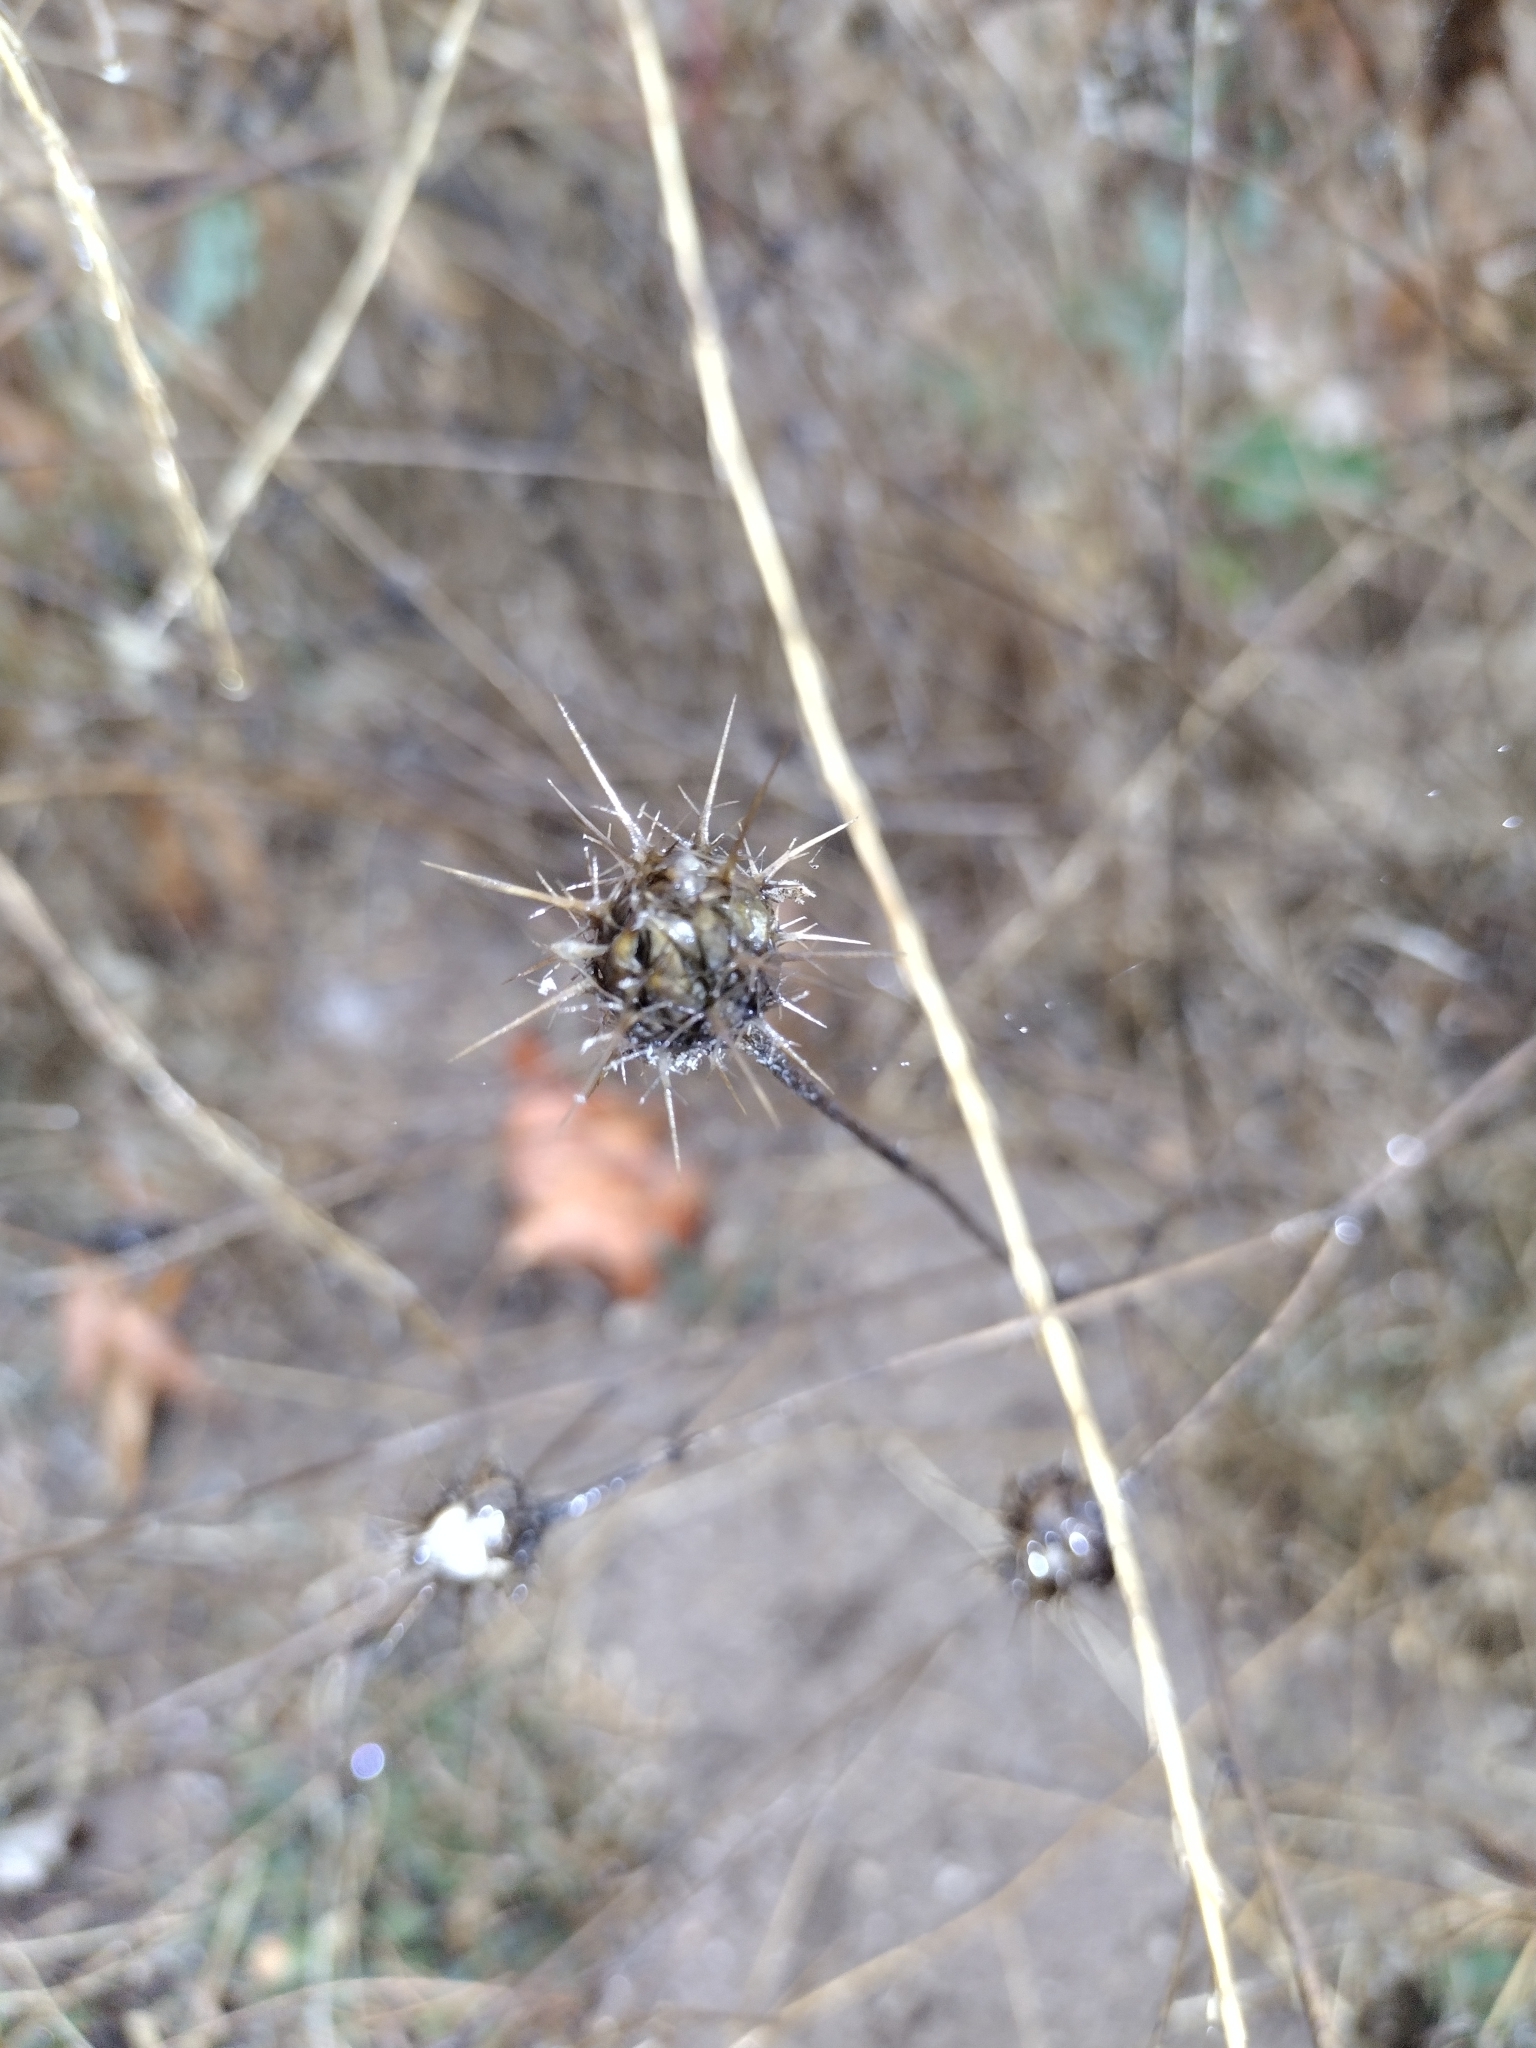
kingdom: Plantae
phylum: Tracheophyta
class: Magnoliopsida
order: Asterales
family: Asteraceae
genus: Centaurea
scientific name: Centaurea melitensis
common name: Maltese star-thistle
